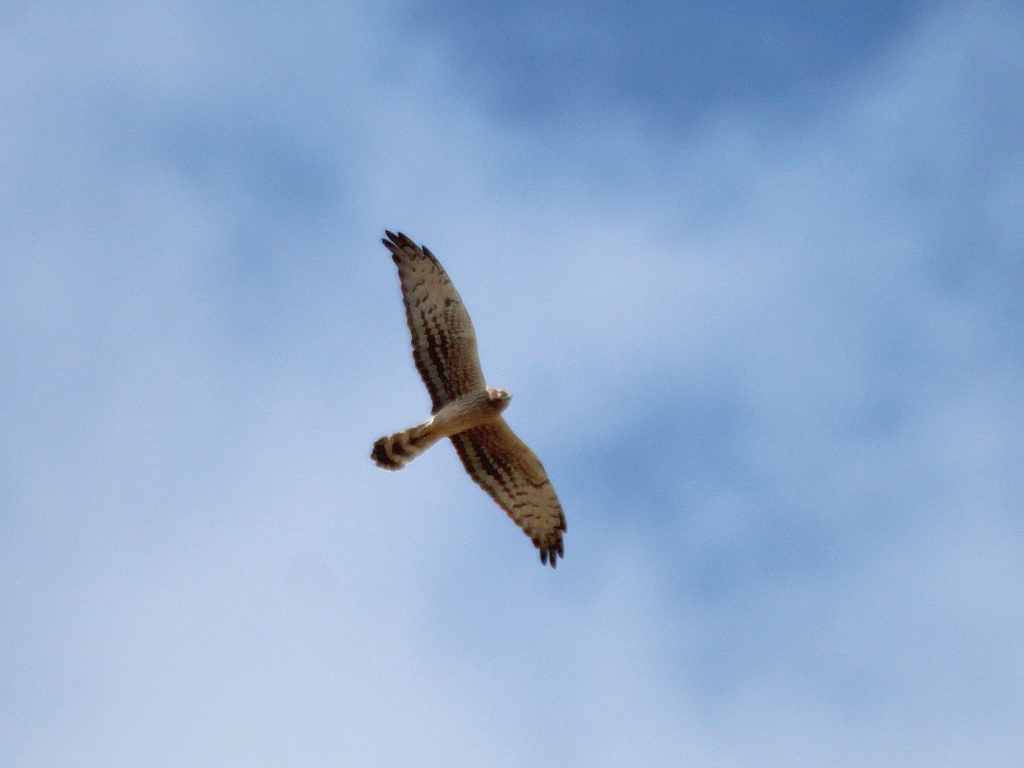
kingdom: Animalia
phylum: Chordata
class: Aves
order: Accipitriformes
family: Accipitridae
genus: Circus
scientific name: Circus pygargus
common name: Montagu's harrier
